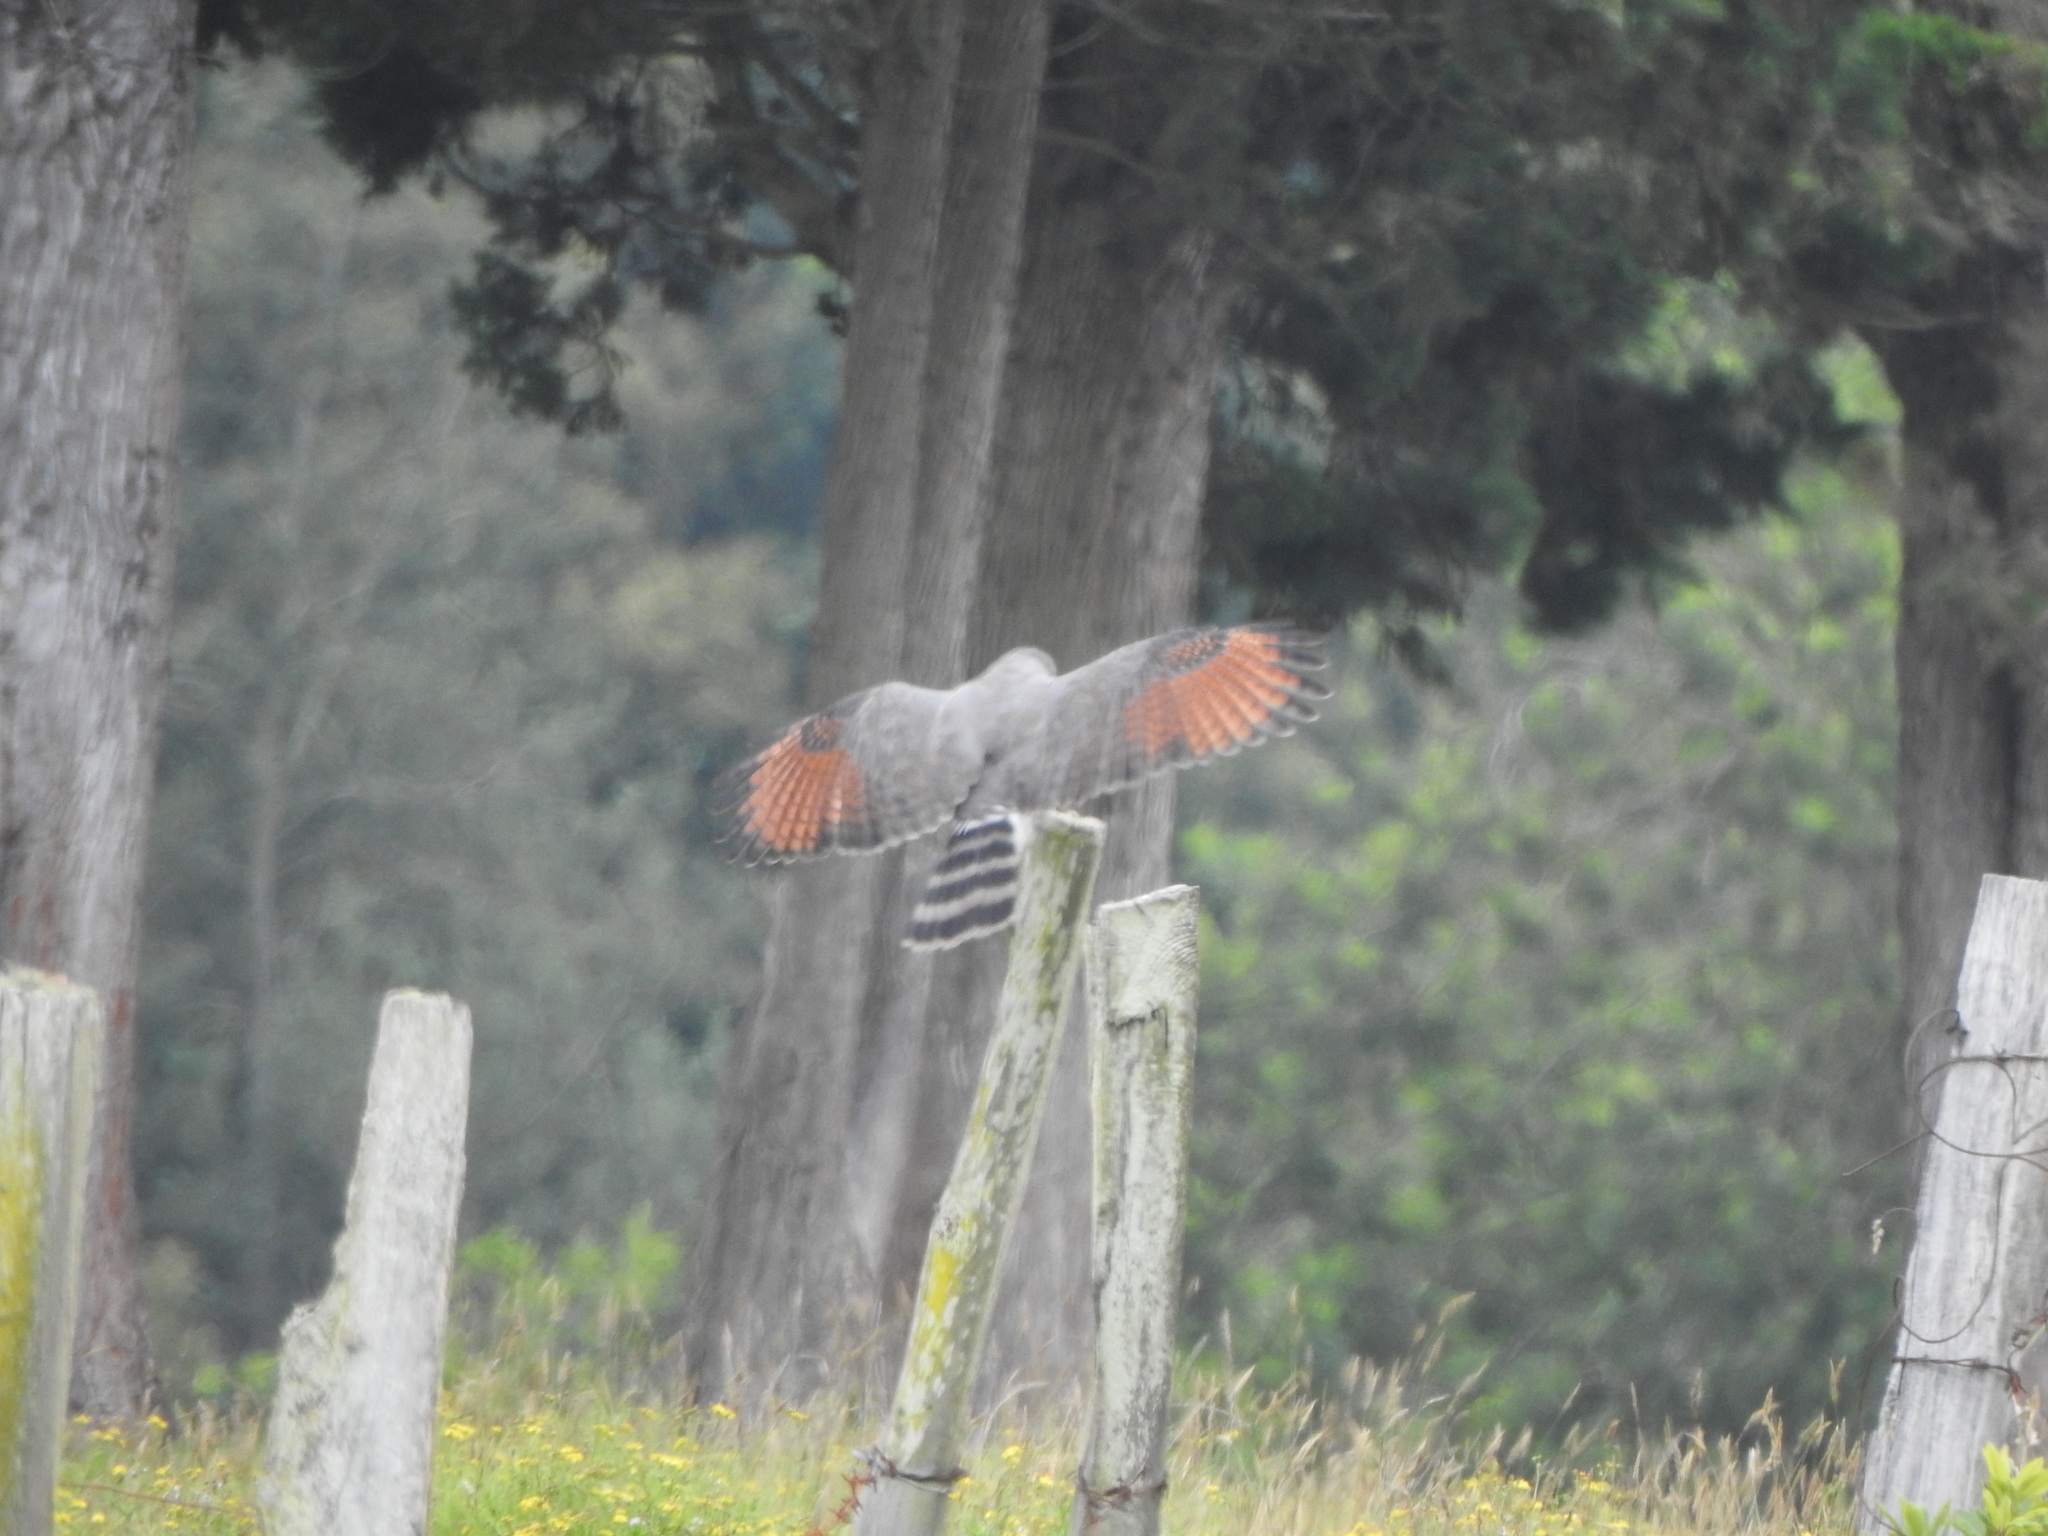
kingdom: Animalia
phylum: Chordata
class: Aves
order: Accipitriformes
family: Accipitridae
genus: Rupornis
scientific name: Rupornis magnirostris
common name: Roadside hawk
